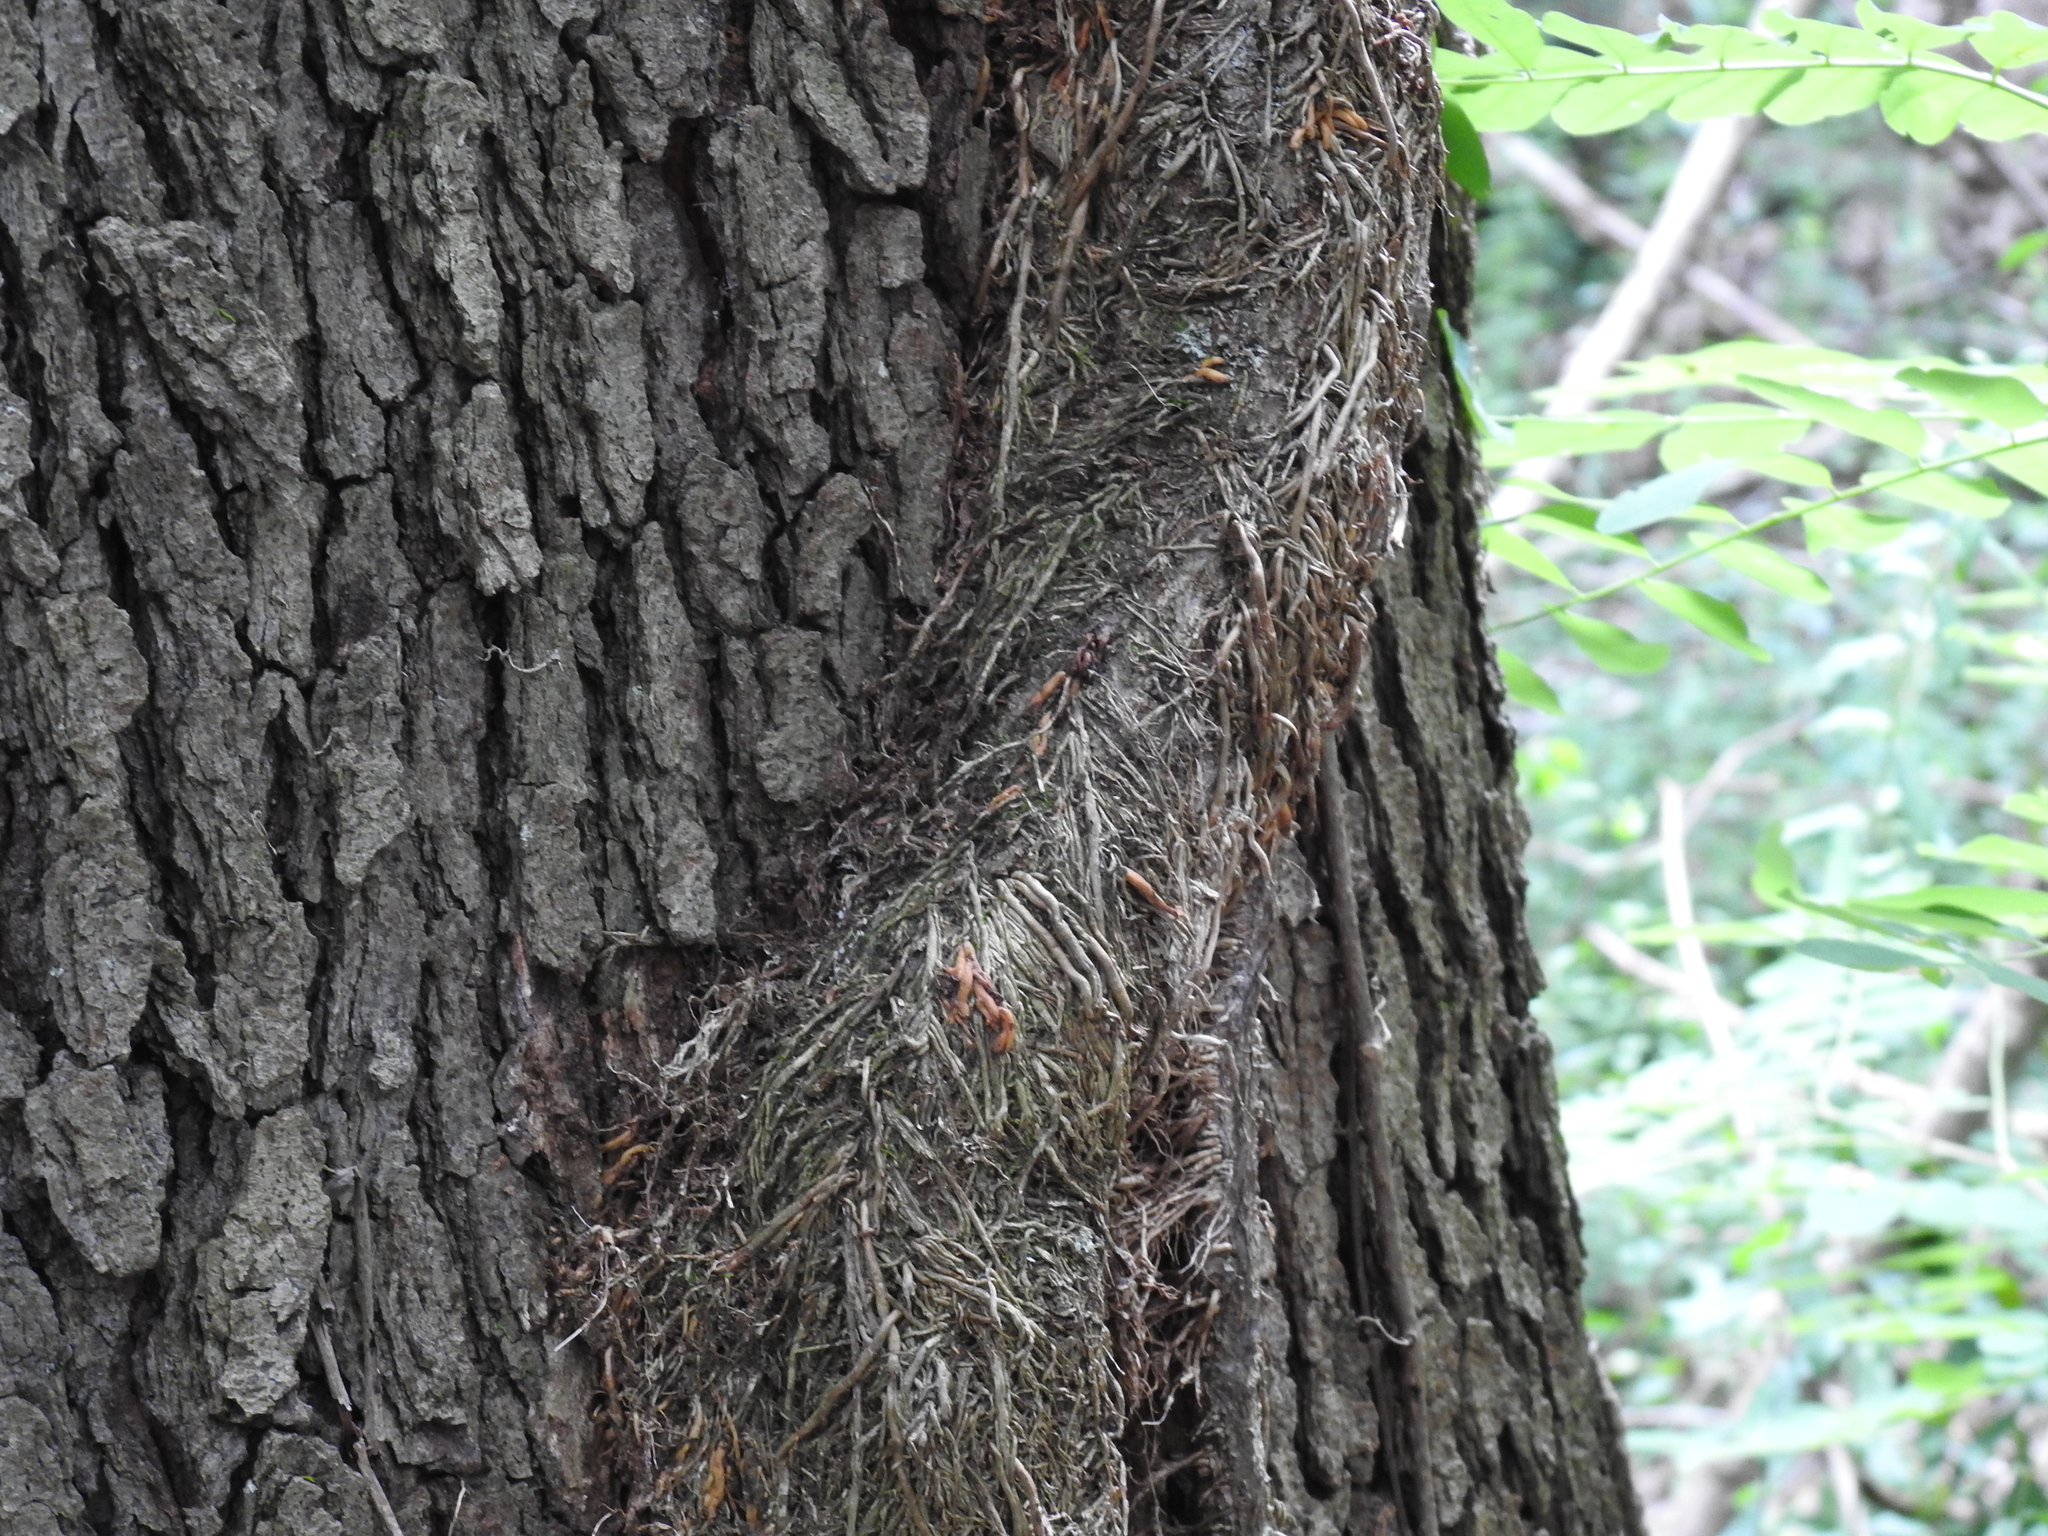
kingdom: Plantae
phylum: Tracheophyta
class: Magnoliopsida
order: Sapindales
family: Anacardiaceae
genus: Toxicodendron
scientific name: Toxicodendron radicans
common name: Poison ivy
